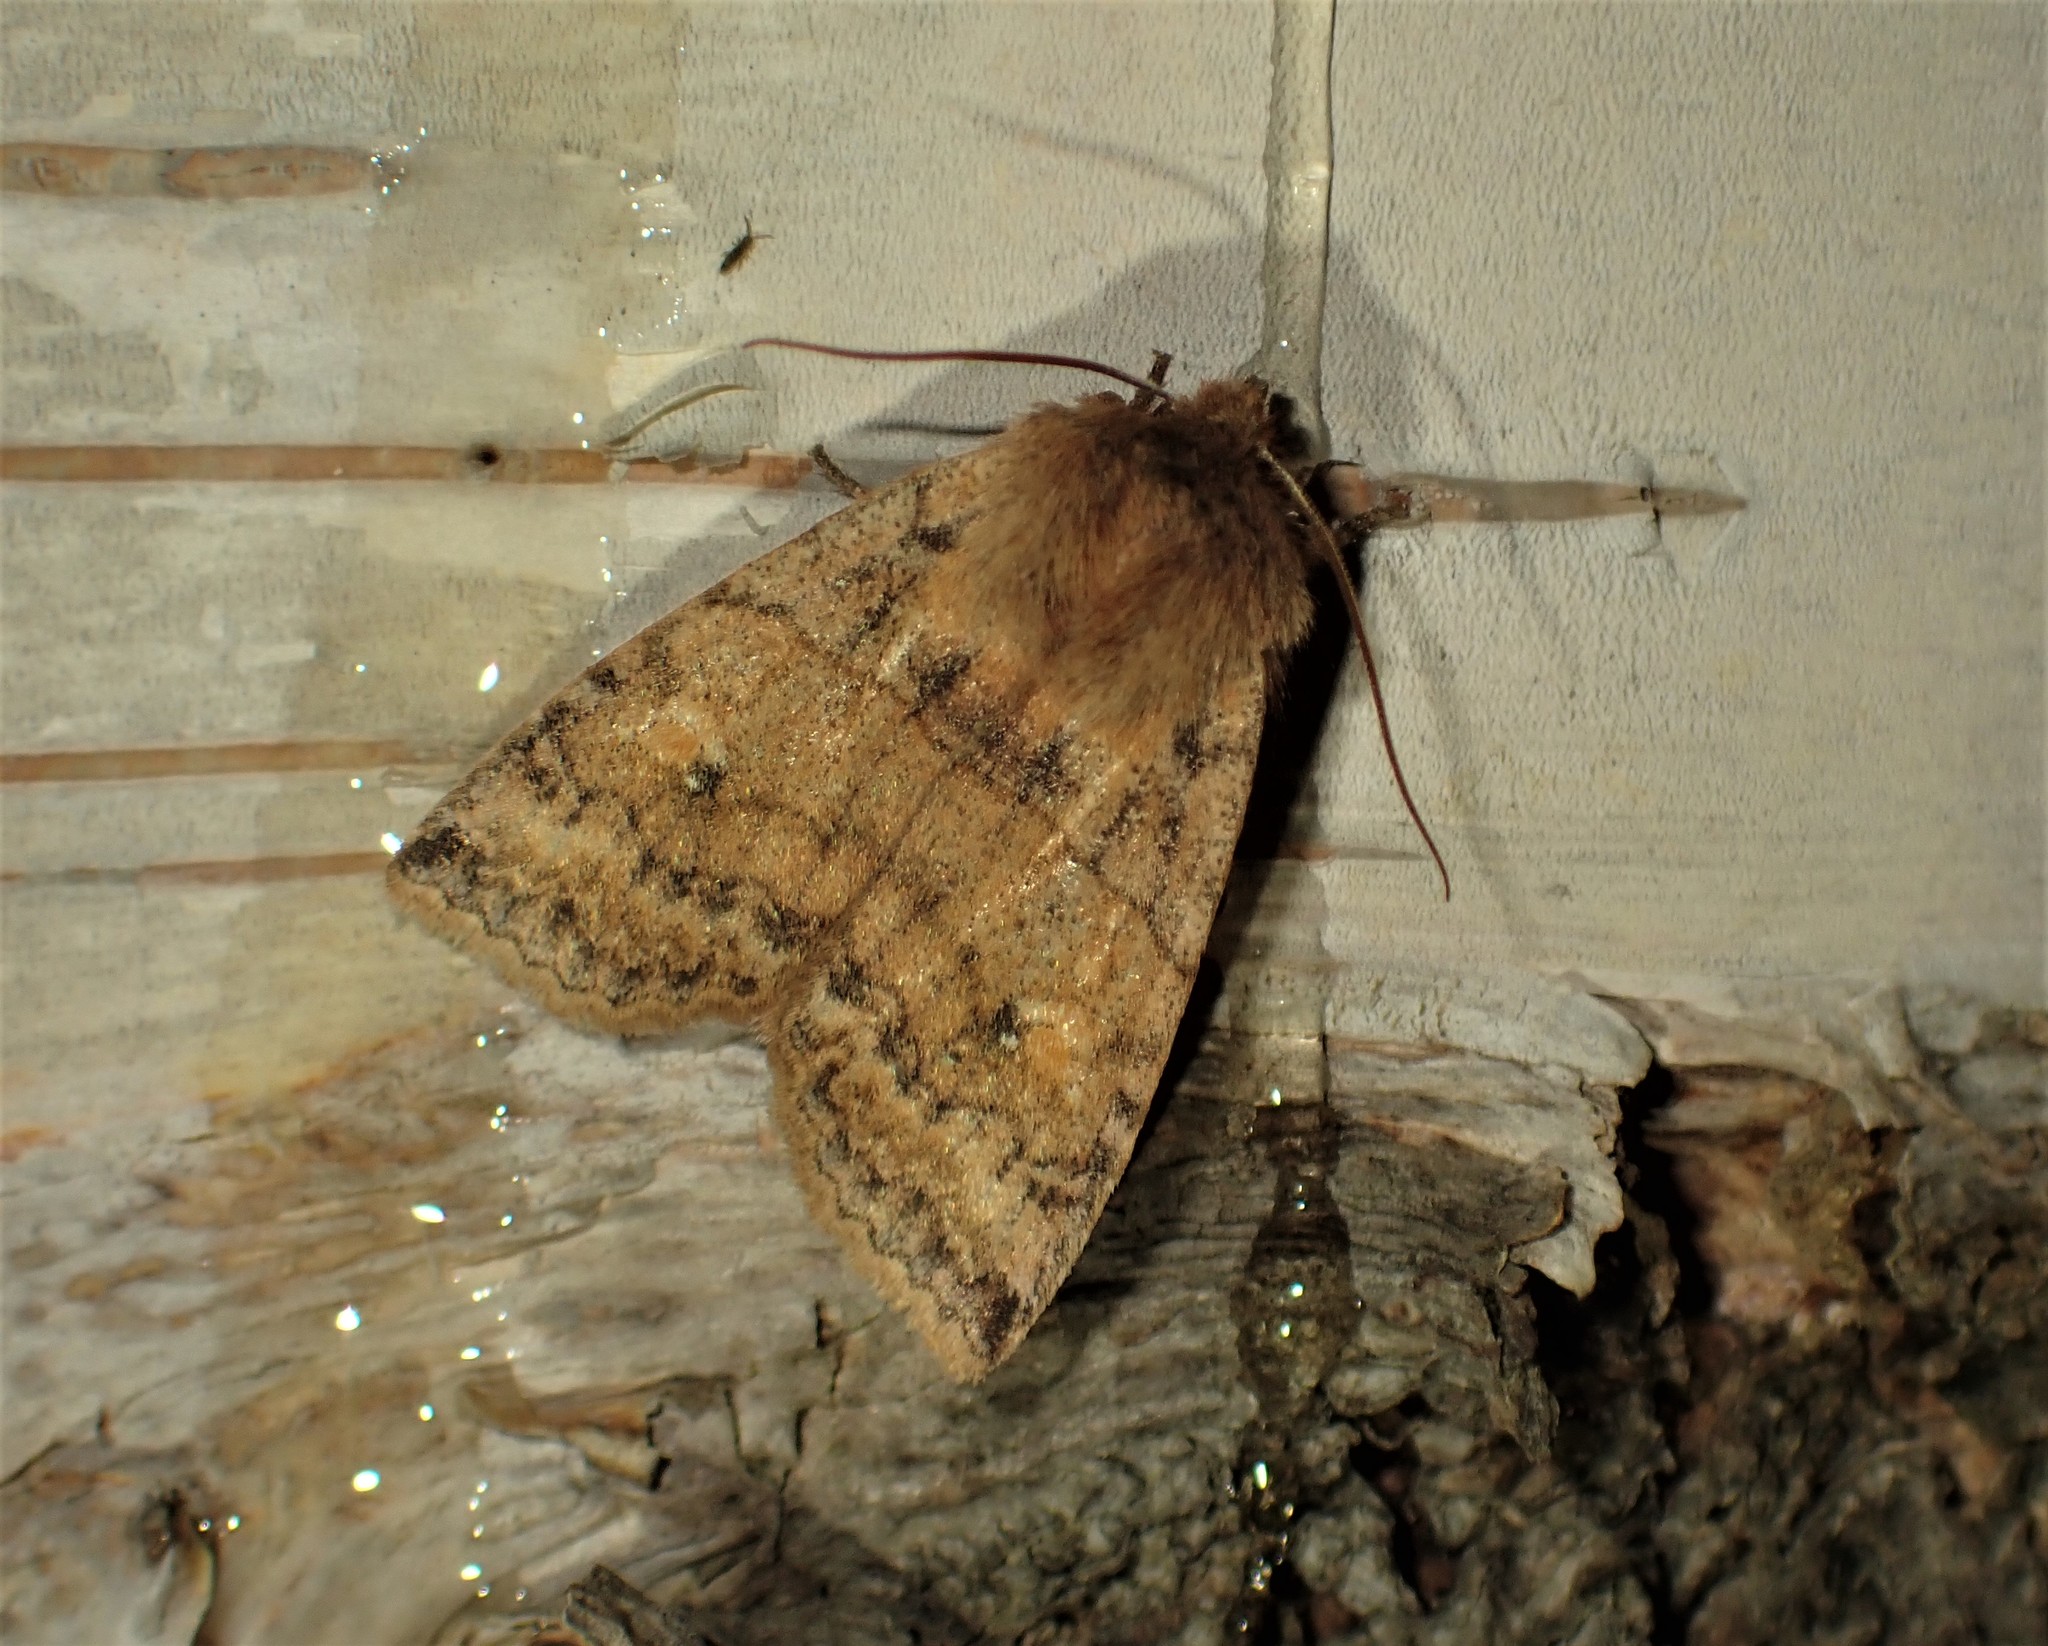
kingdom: Animalia
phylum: Arthropoda
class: Insecta
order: Lepidoptera
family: Noctuidae
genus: Eupsilia
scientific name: Eupsilia tristigmata
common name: Three-spotted sallow
